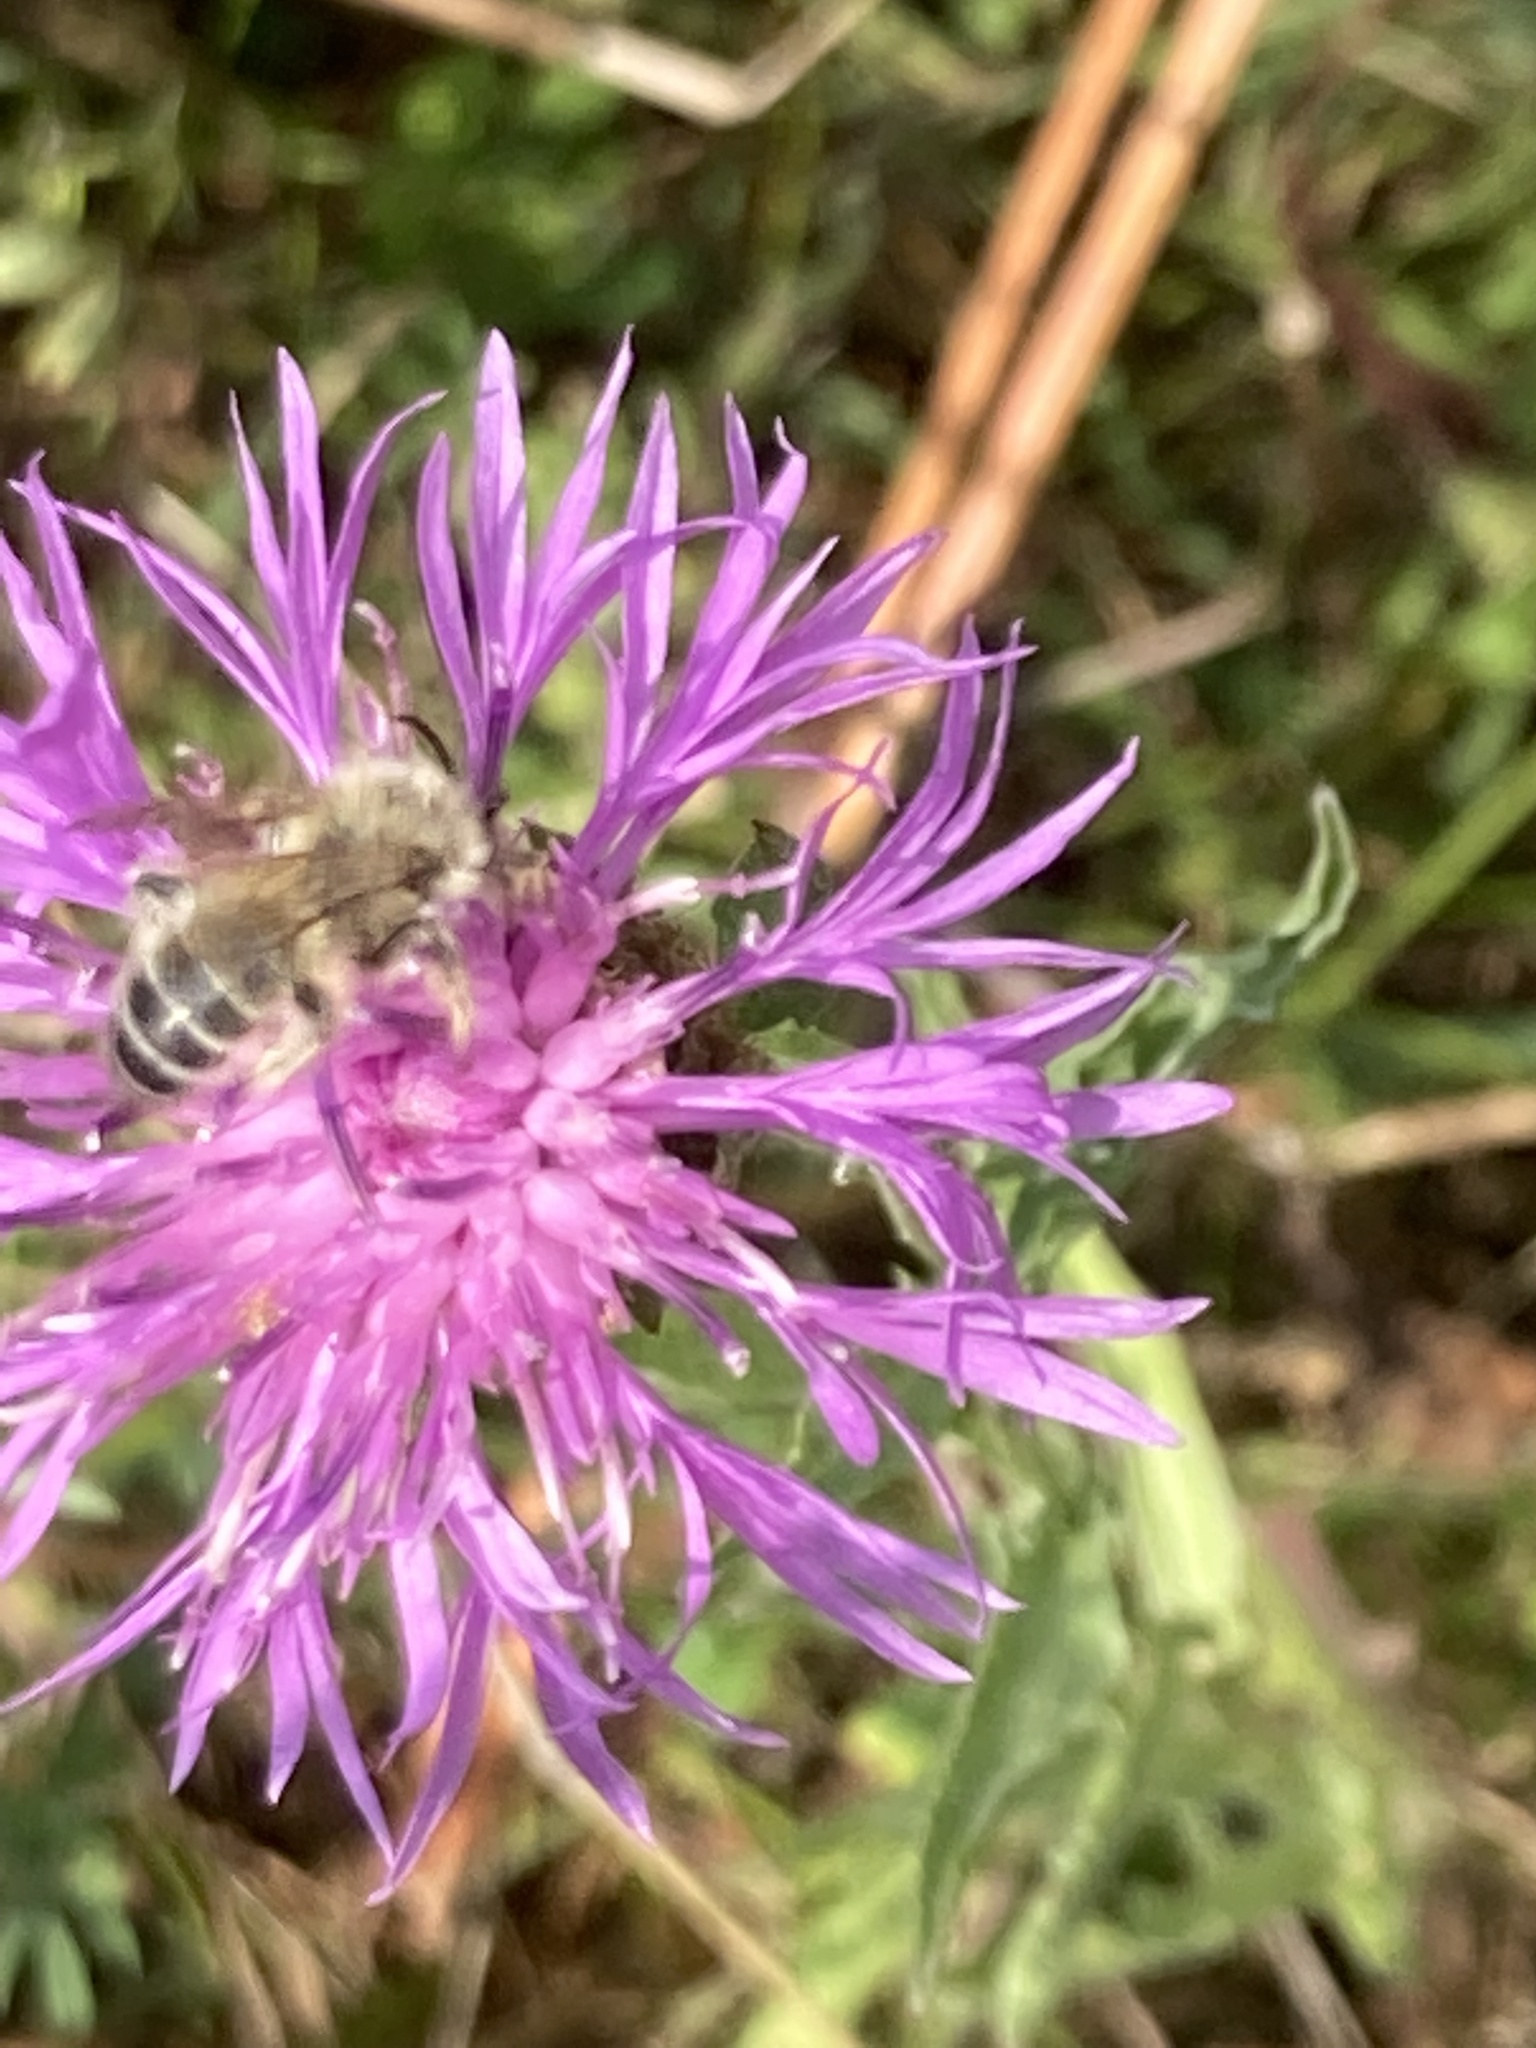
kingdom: Animalia
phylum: Arthropoda
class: Insecta
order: Hymenoptera
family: Melittidae
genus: Dasypoda
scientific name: Dasypoda hirtipes
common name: Pantaloon bee
